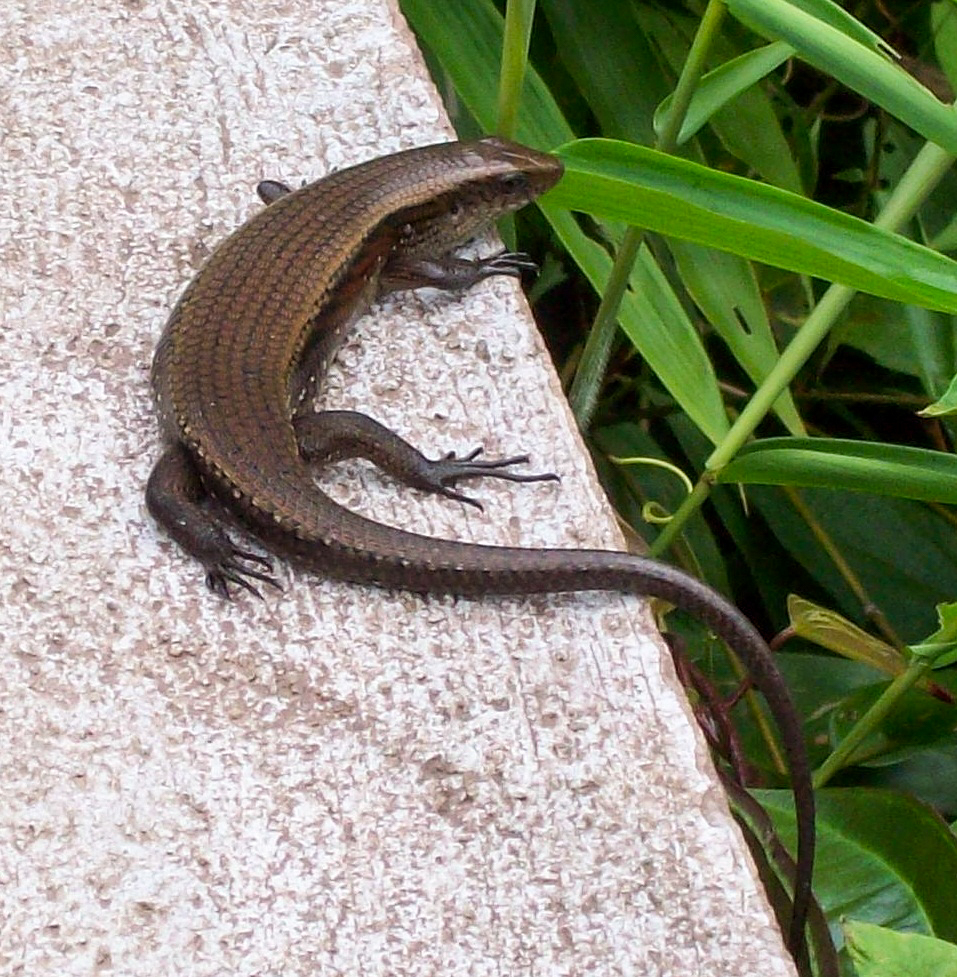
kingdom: Animalia
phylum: Chordata
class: Squamata
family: Scincidae
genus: Eutropis
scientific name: Eutropis multifasciata
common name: Common mabuya
